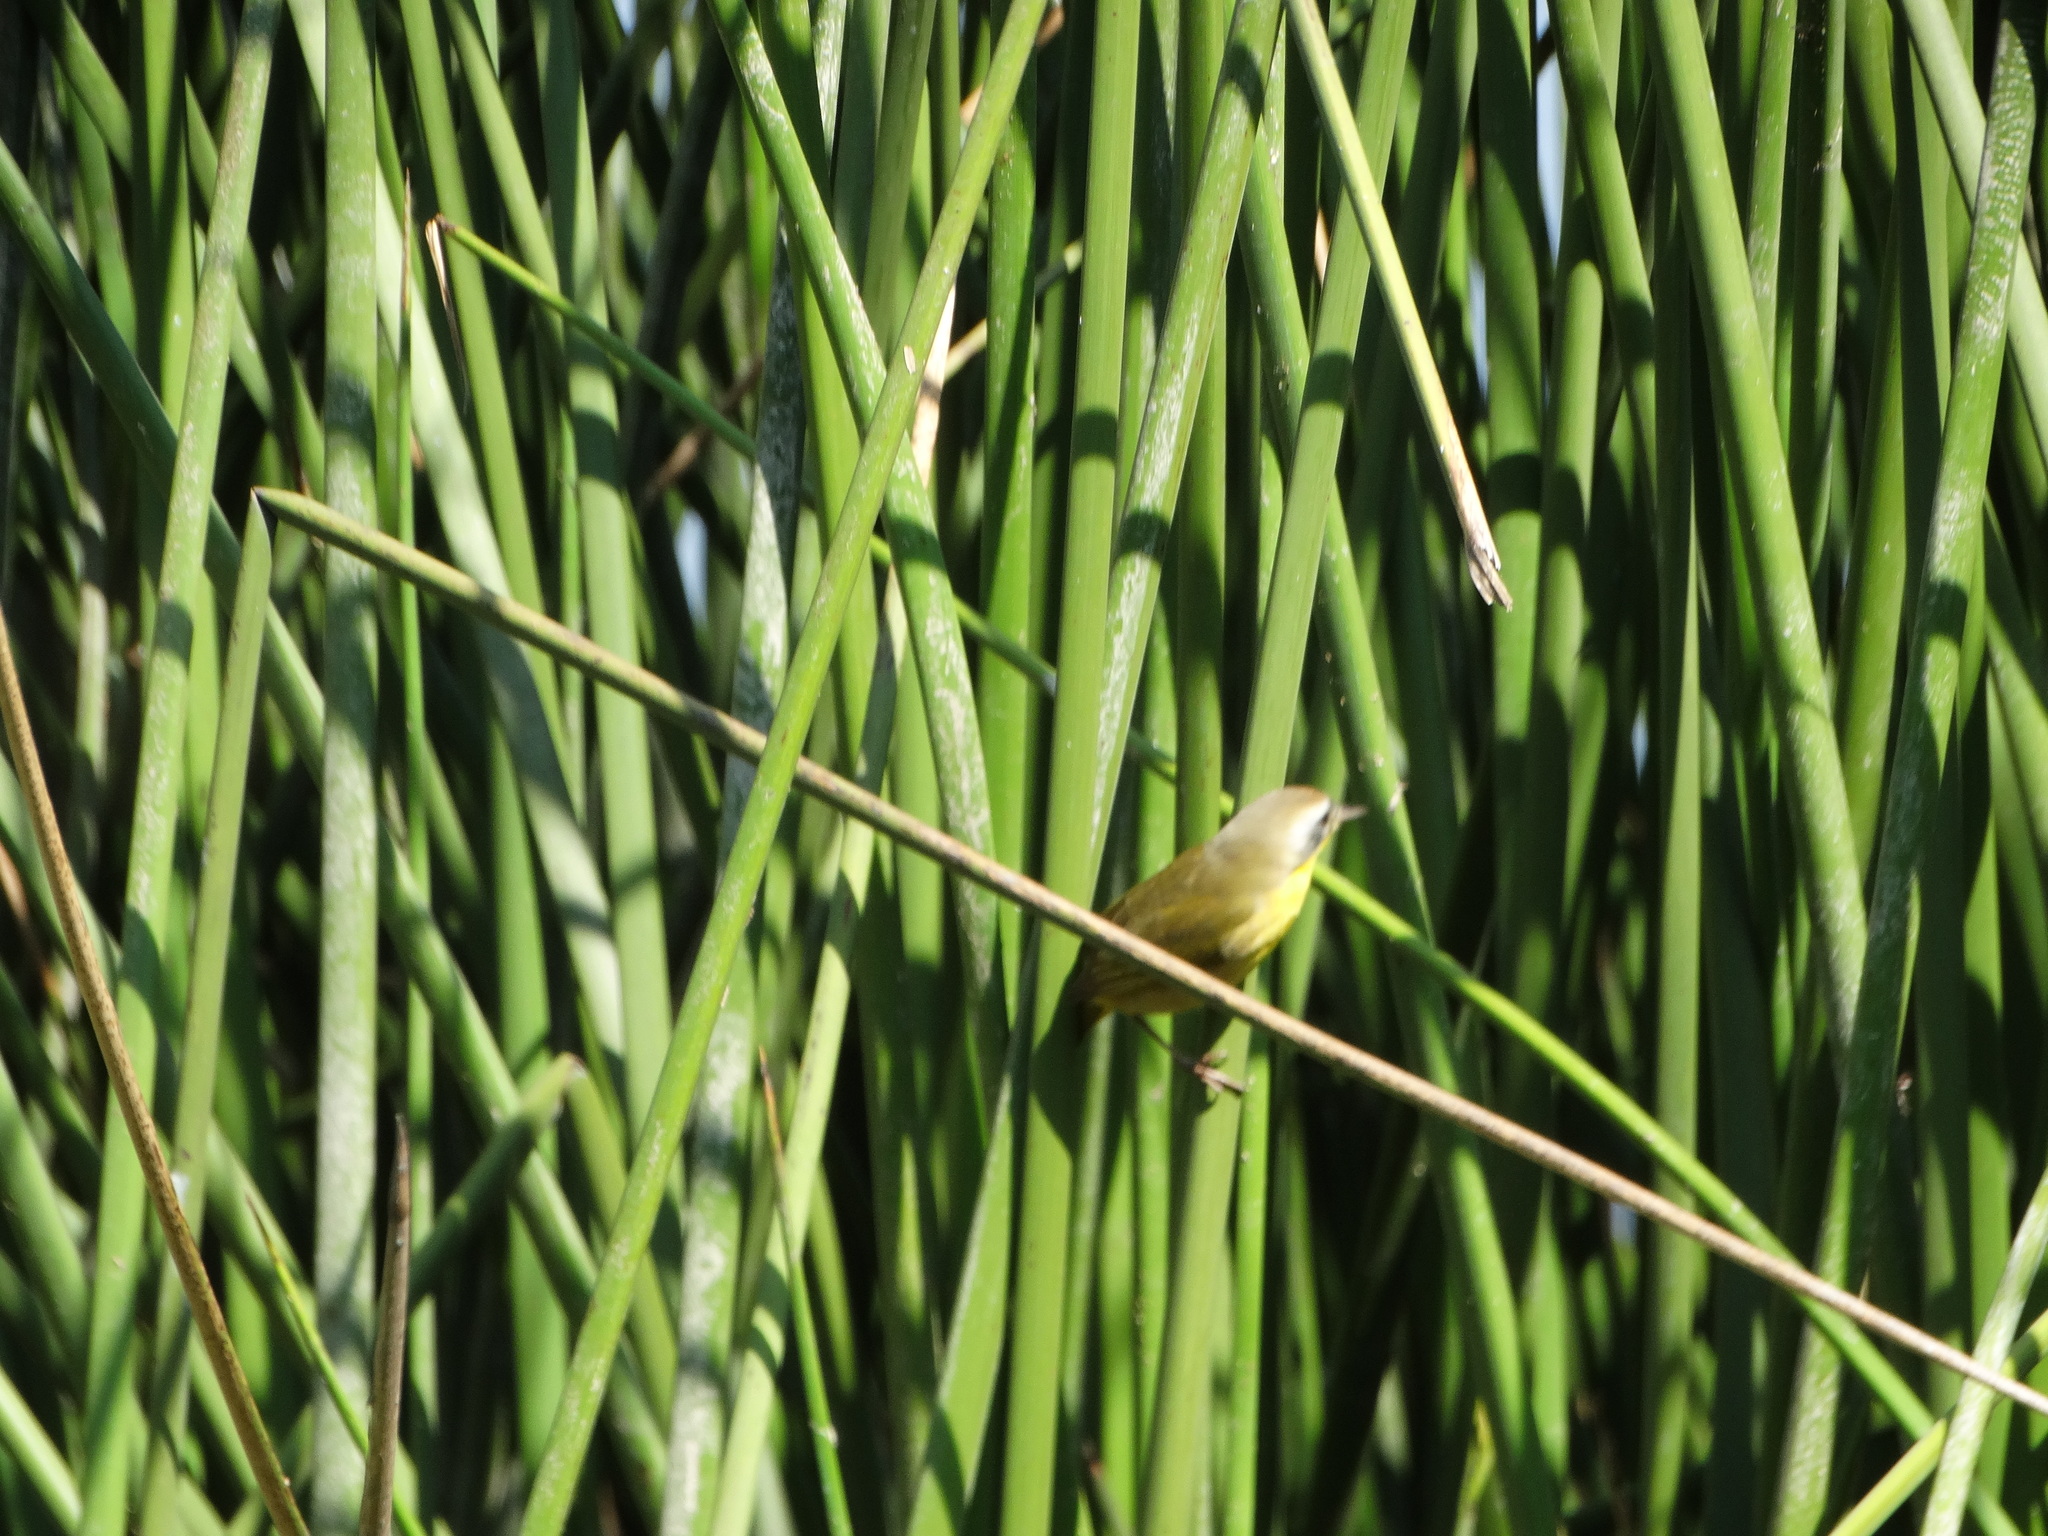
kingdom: Animalia
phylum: Chordata
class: Aves
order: Passeriformes
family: Parulidae
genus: Geothlypis
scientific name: Geothlypis trichas
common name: Common yellowthroat
